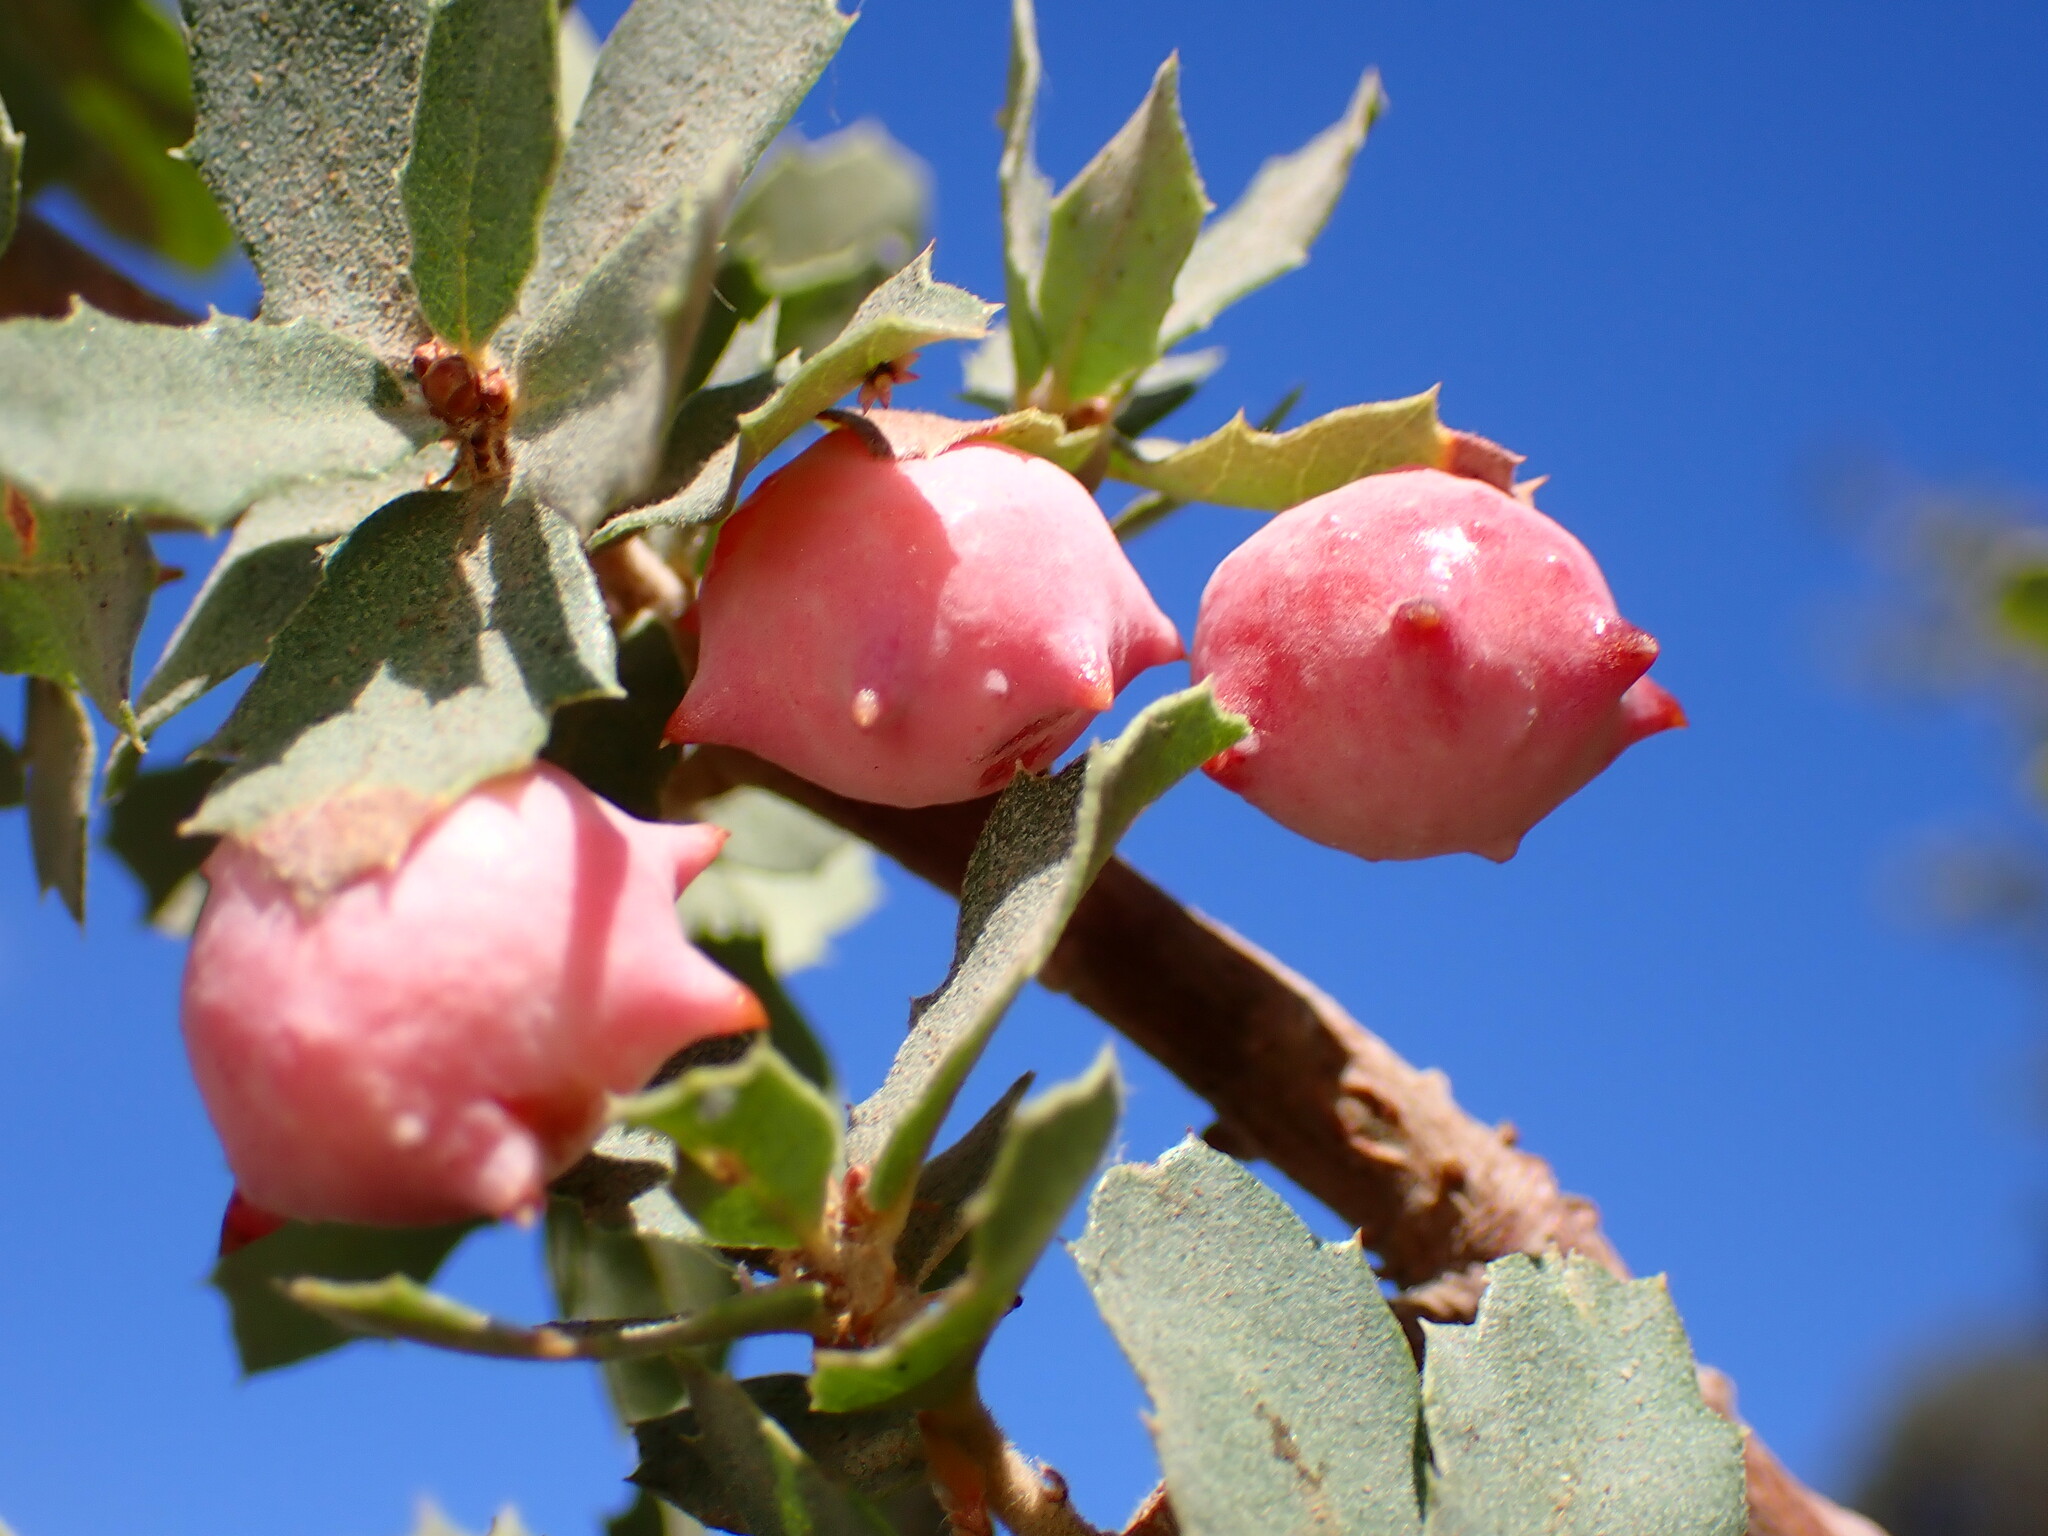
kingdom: Animalia
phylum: Arthropoda
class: Insecta
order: Hymenoptera
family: Cynipidae
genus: Cynips
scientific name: Cynips douglasi
